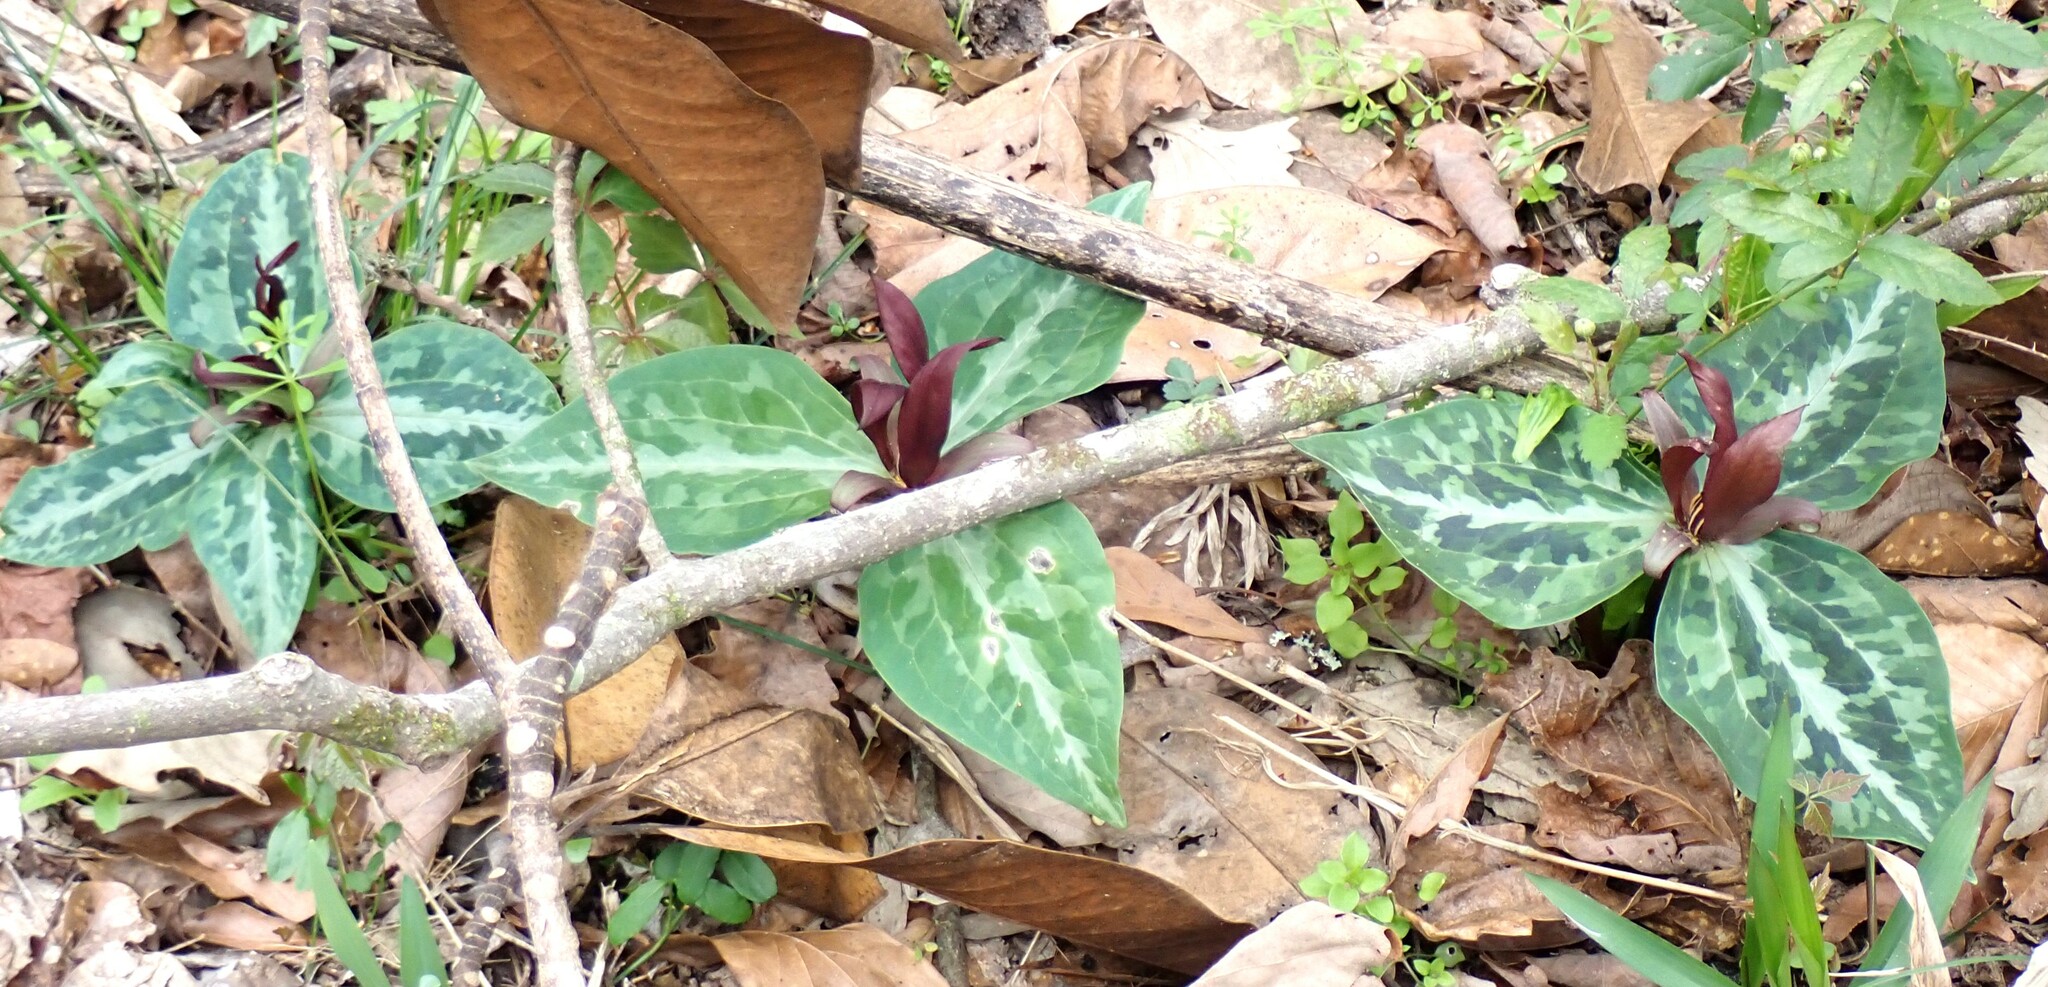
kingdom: Plantae
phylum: Tracheophyta
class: Liliopsida
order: Liliales
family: Melanthiaceae
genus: Trillium
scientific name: Trillium underwoodii
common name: Longbract wakerobin
